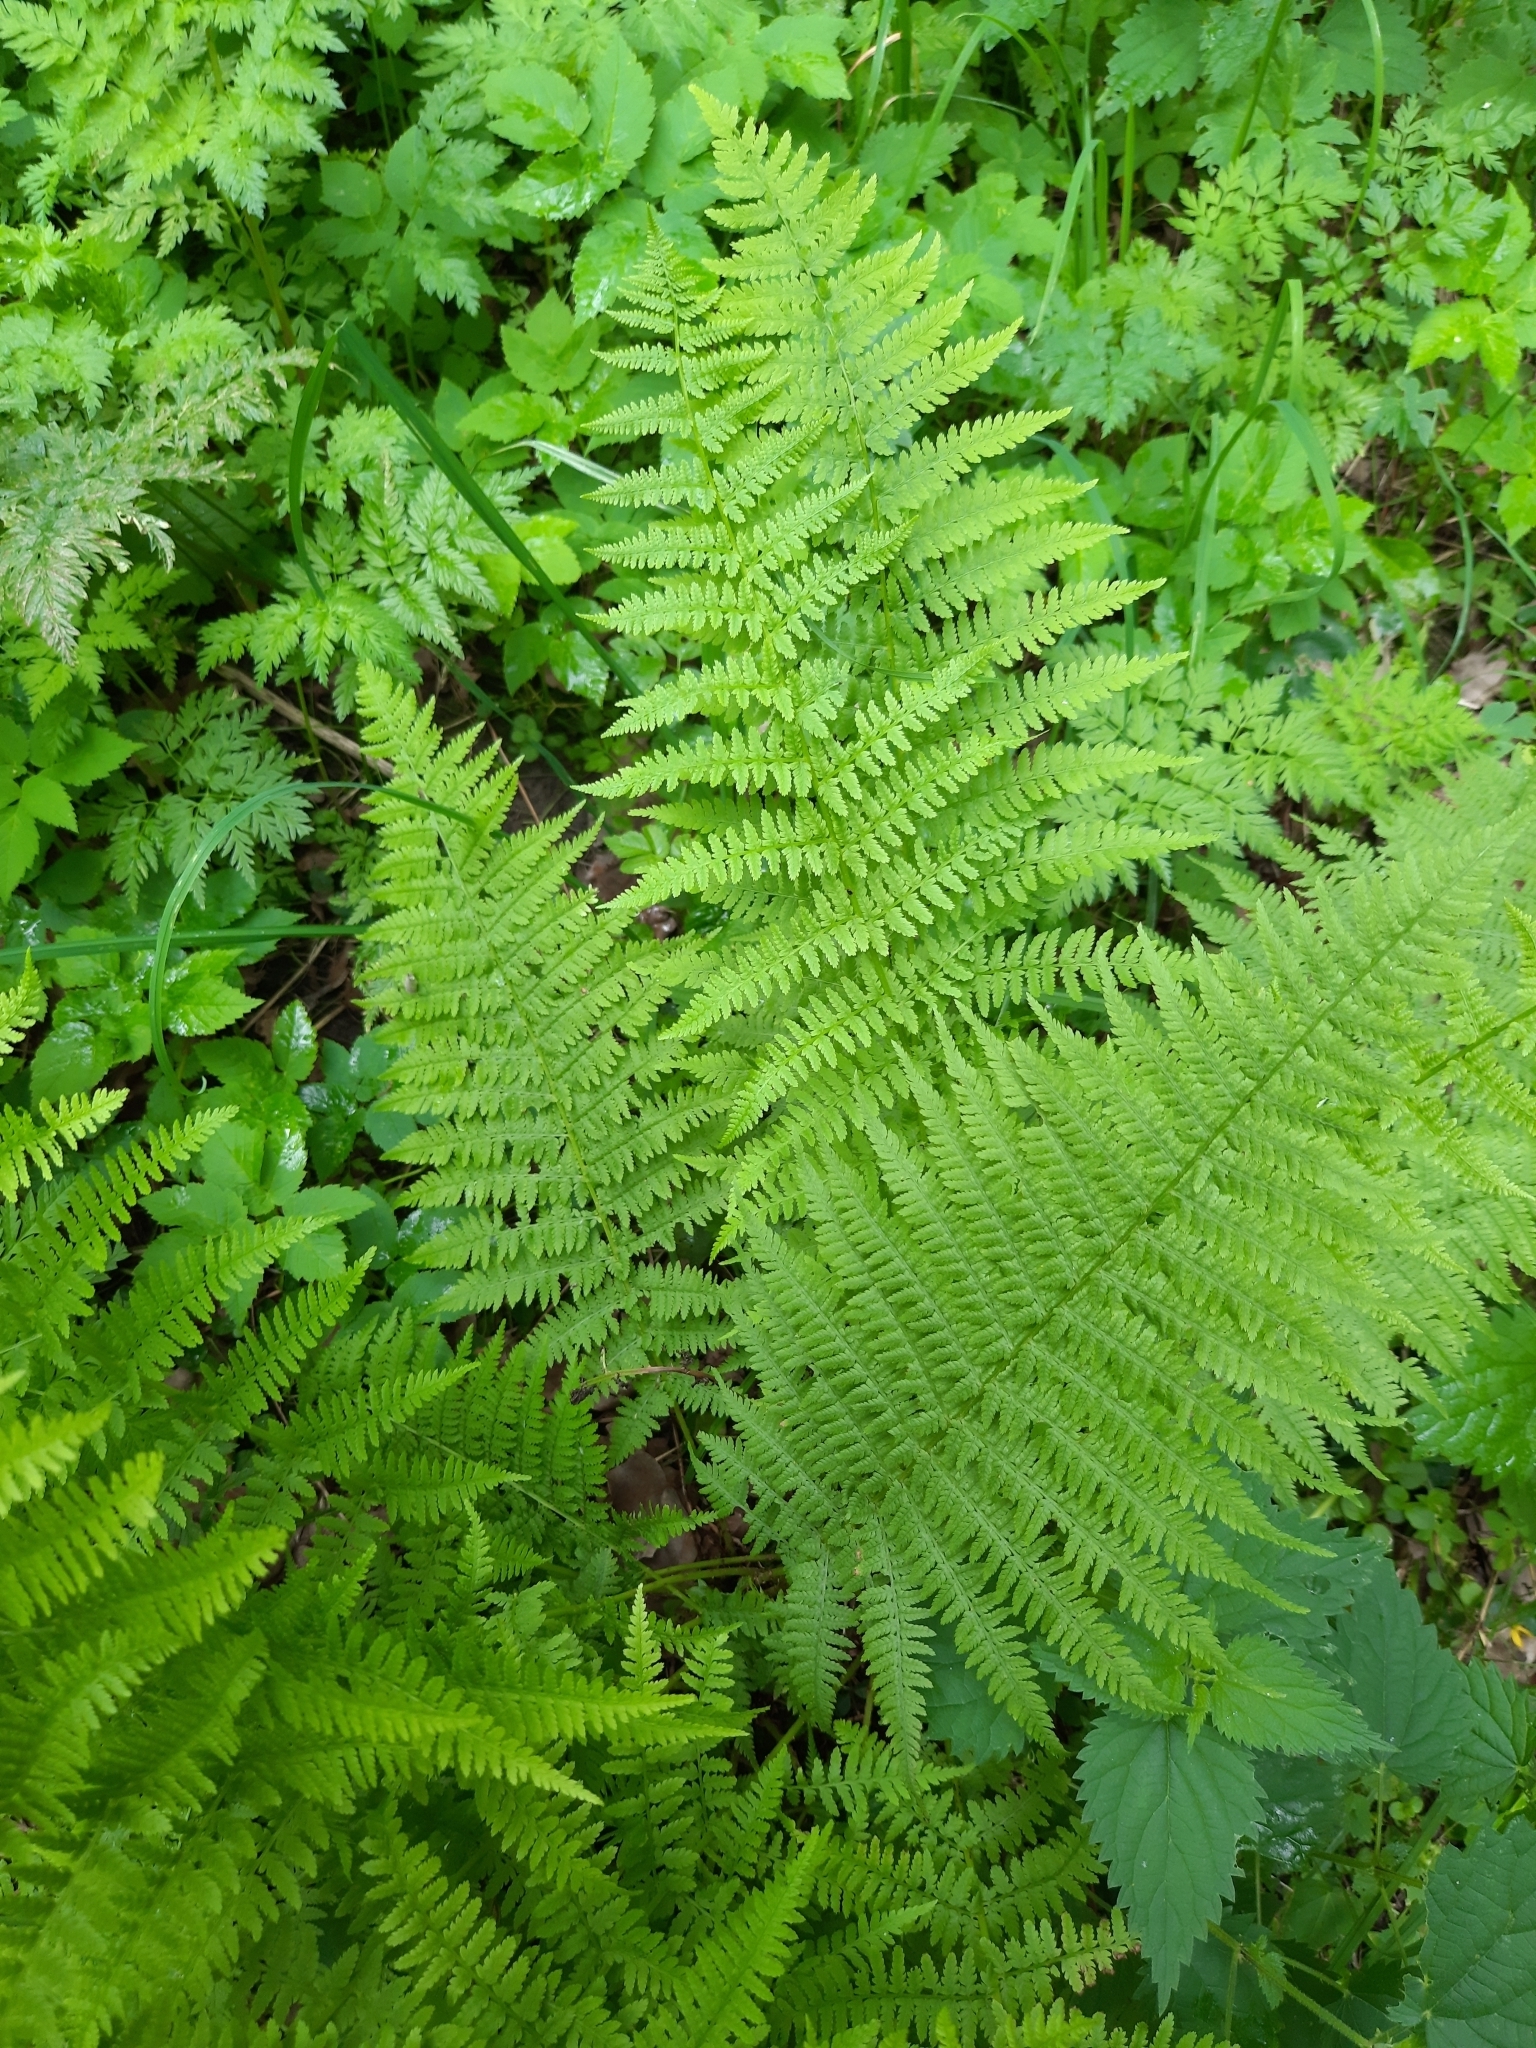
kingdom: Plantae
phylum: Tracheophyta
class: Polypodiopsida
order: Polypodiales
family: Athyriaceae
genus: Athyrium
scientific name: Athyrium filix-femina
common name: Lady fern
